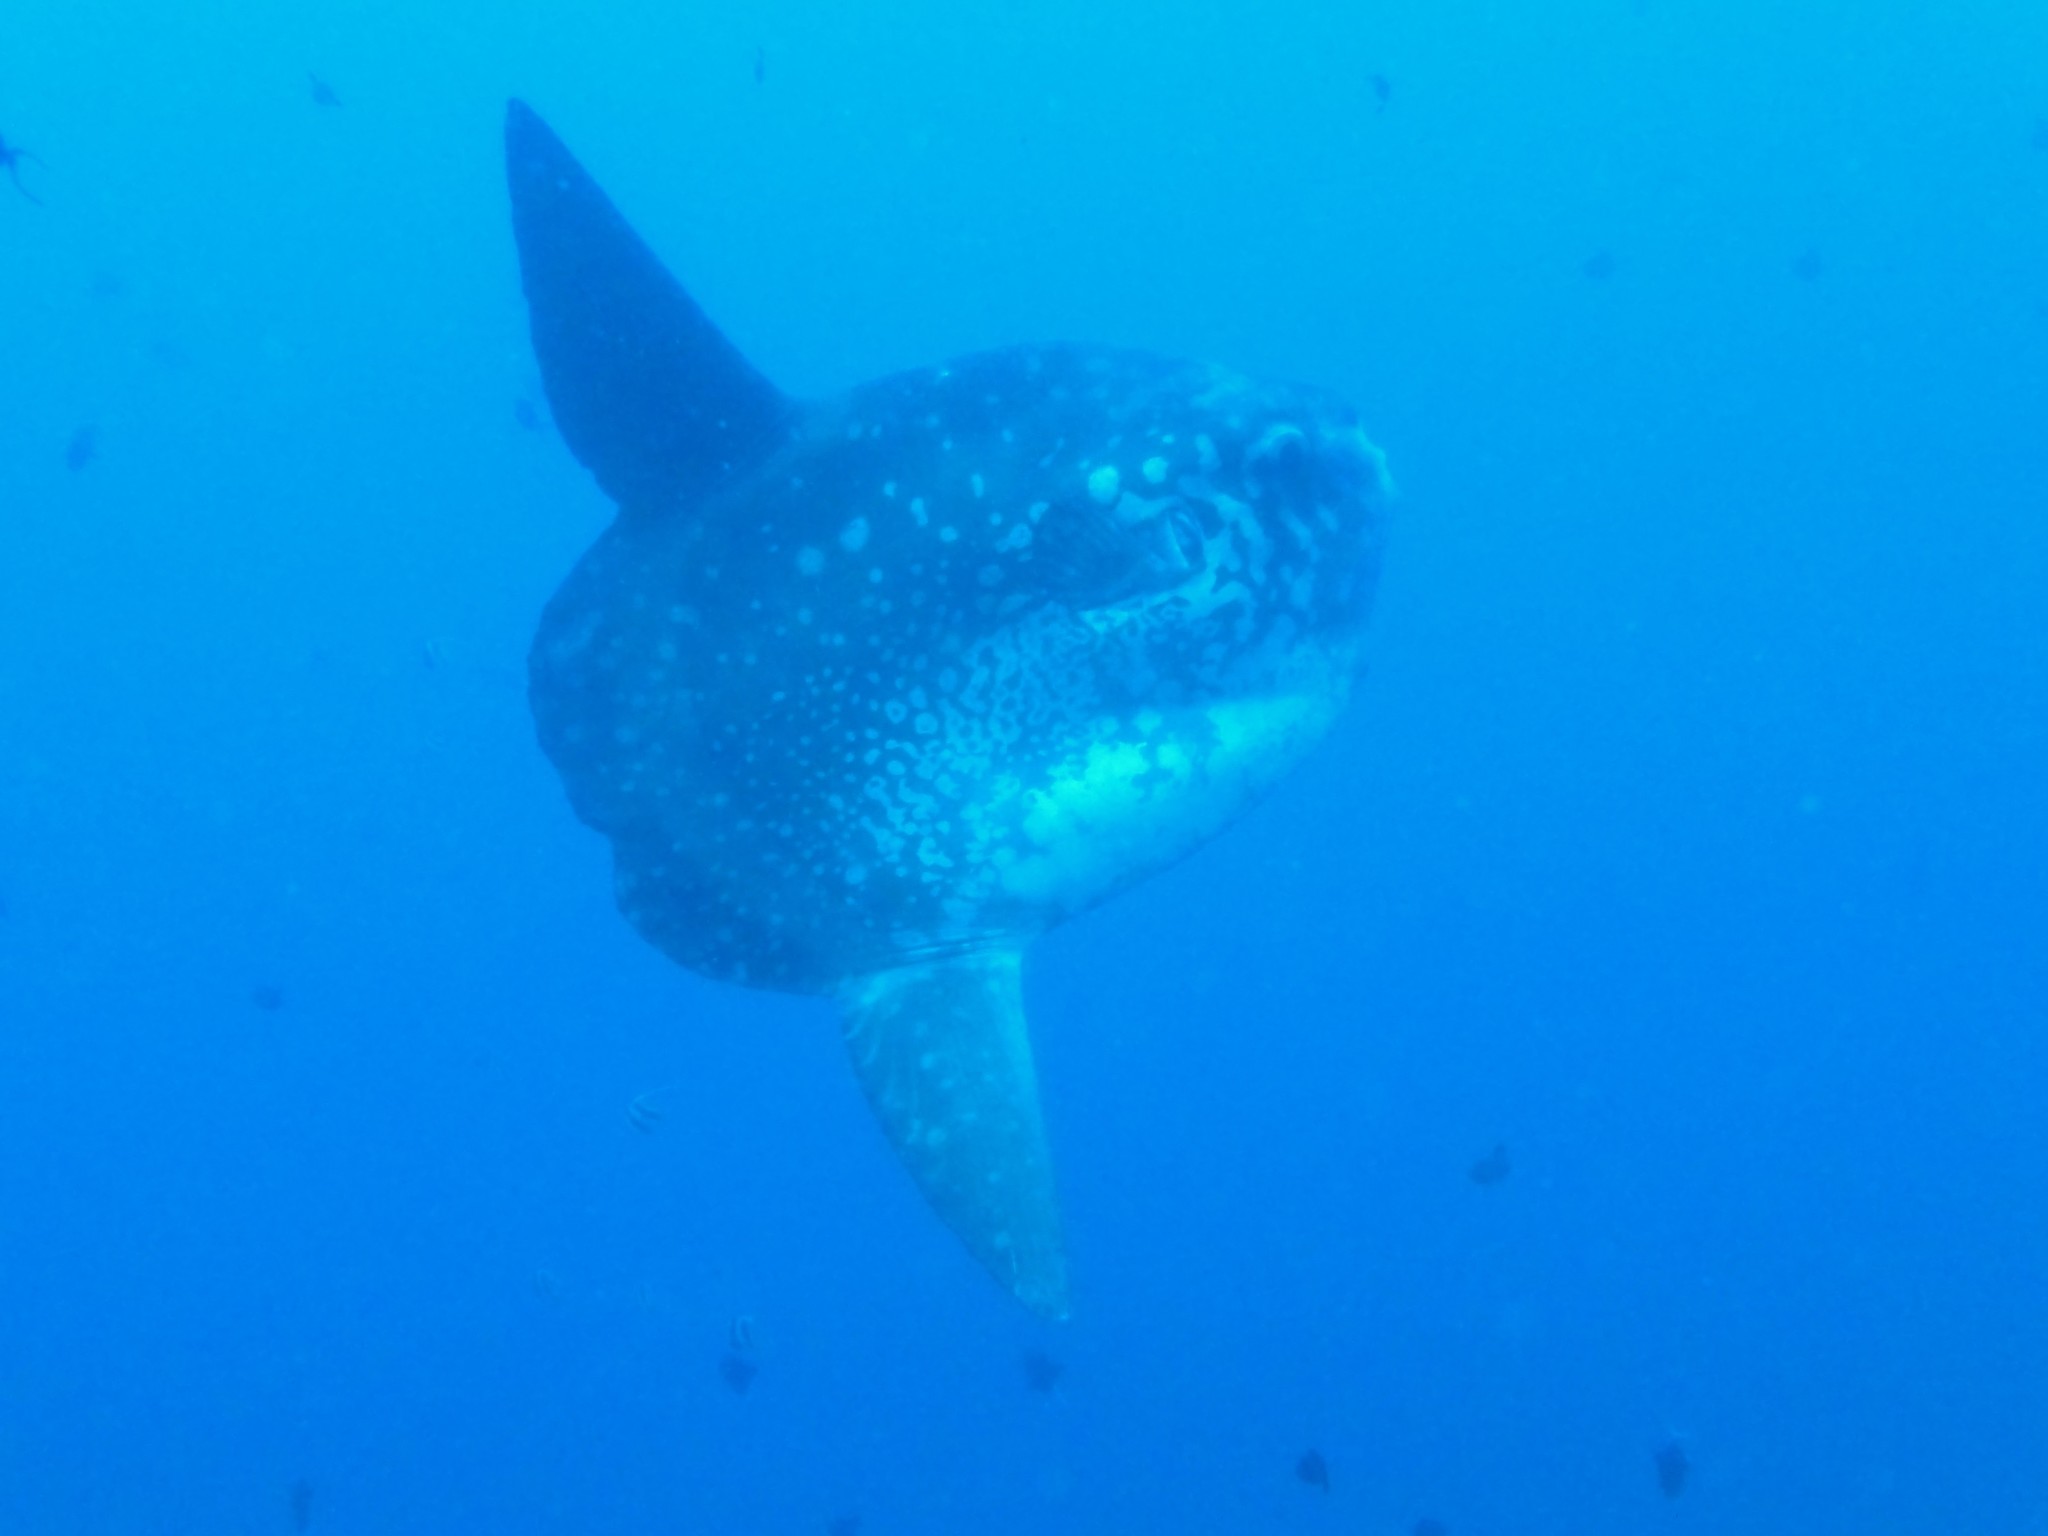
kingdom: Animalia
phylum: Chordata
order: Tetraodontiformes
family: Molidae
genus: Mola
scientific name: Mola mola
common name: Ocean sunfish
